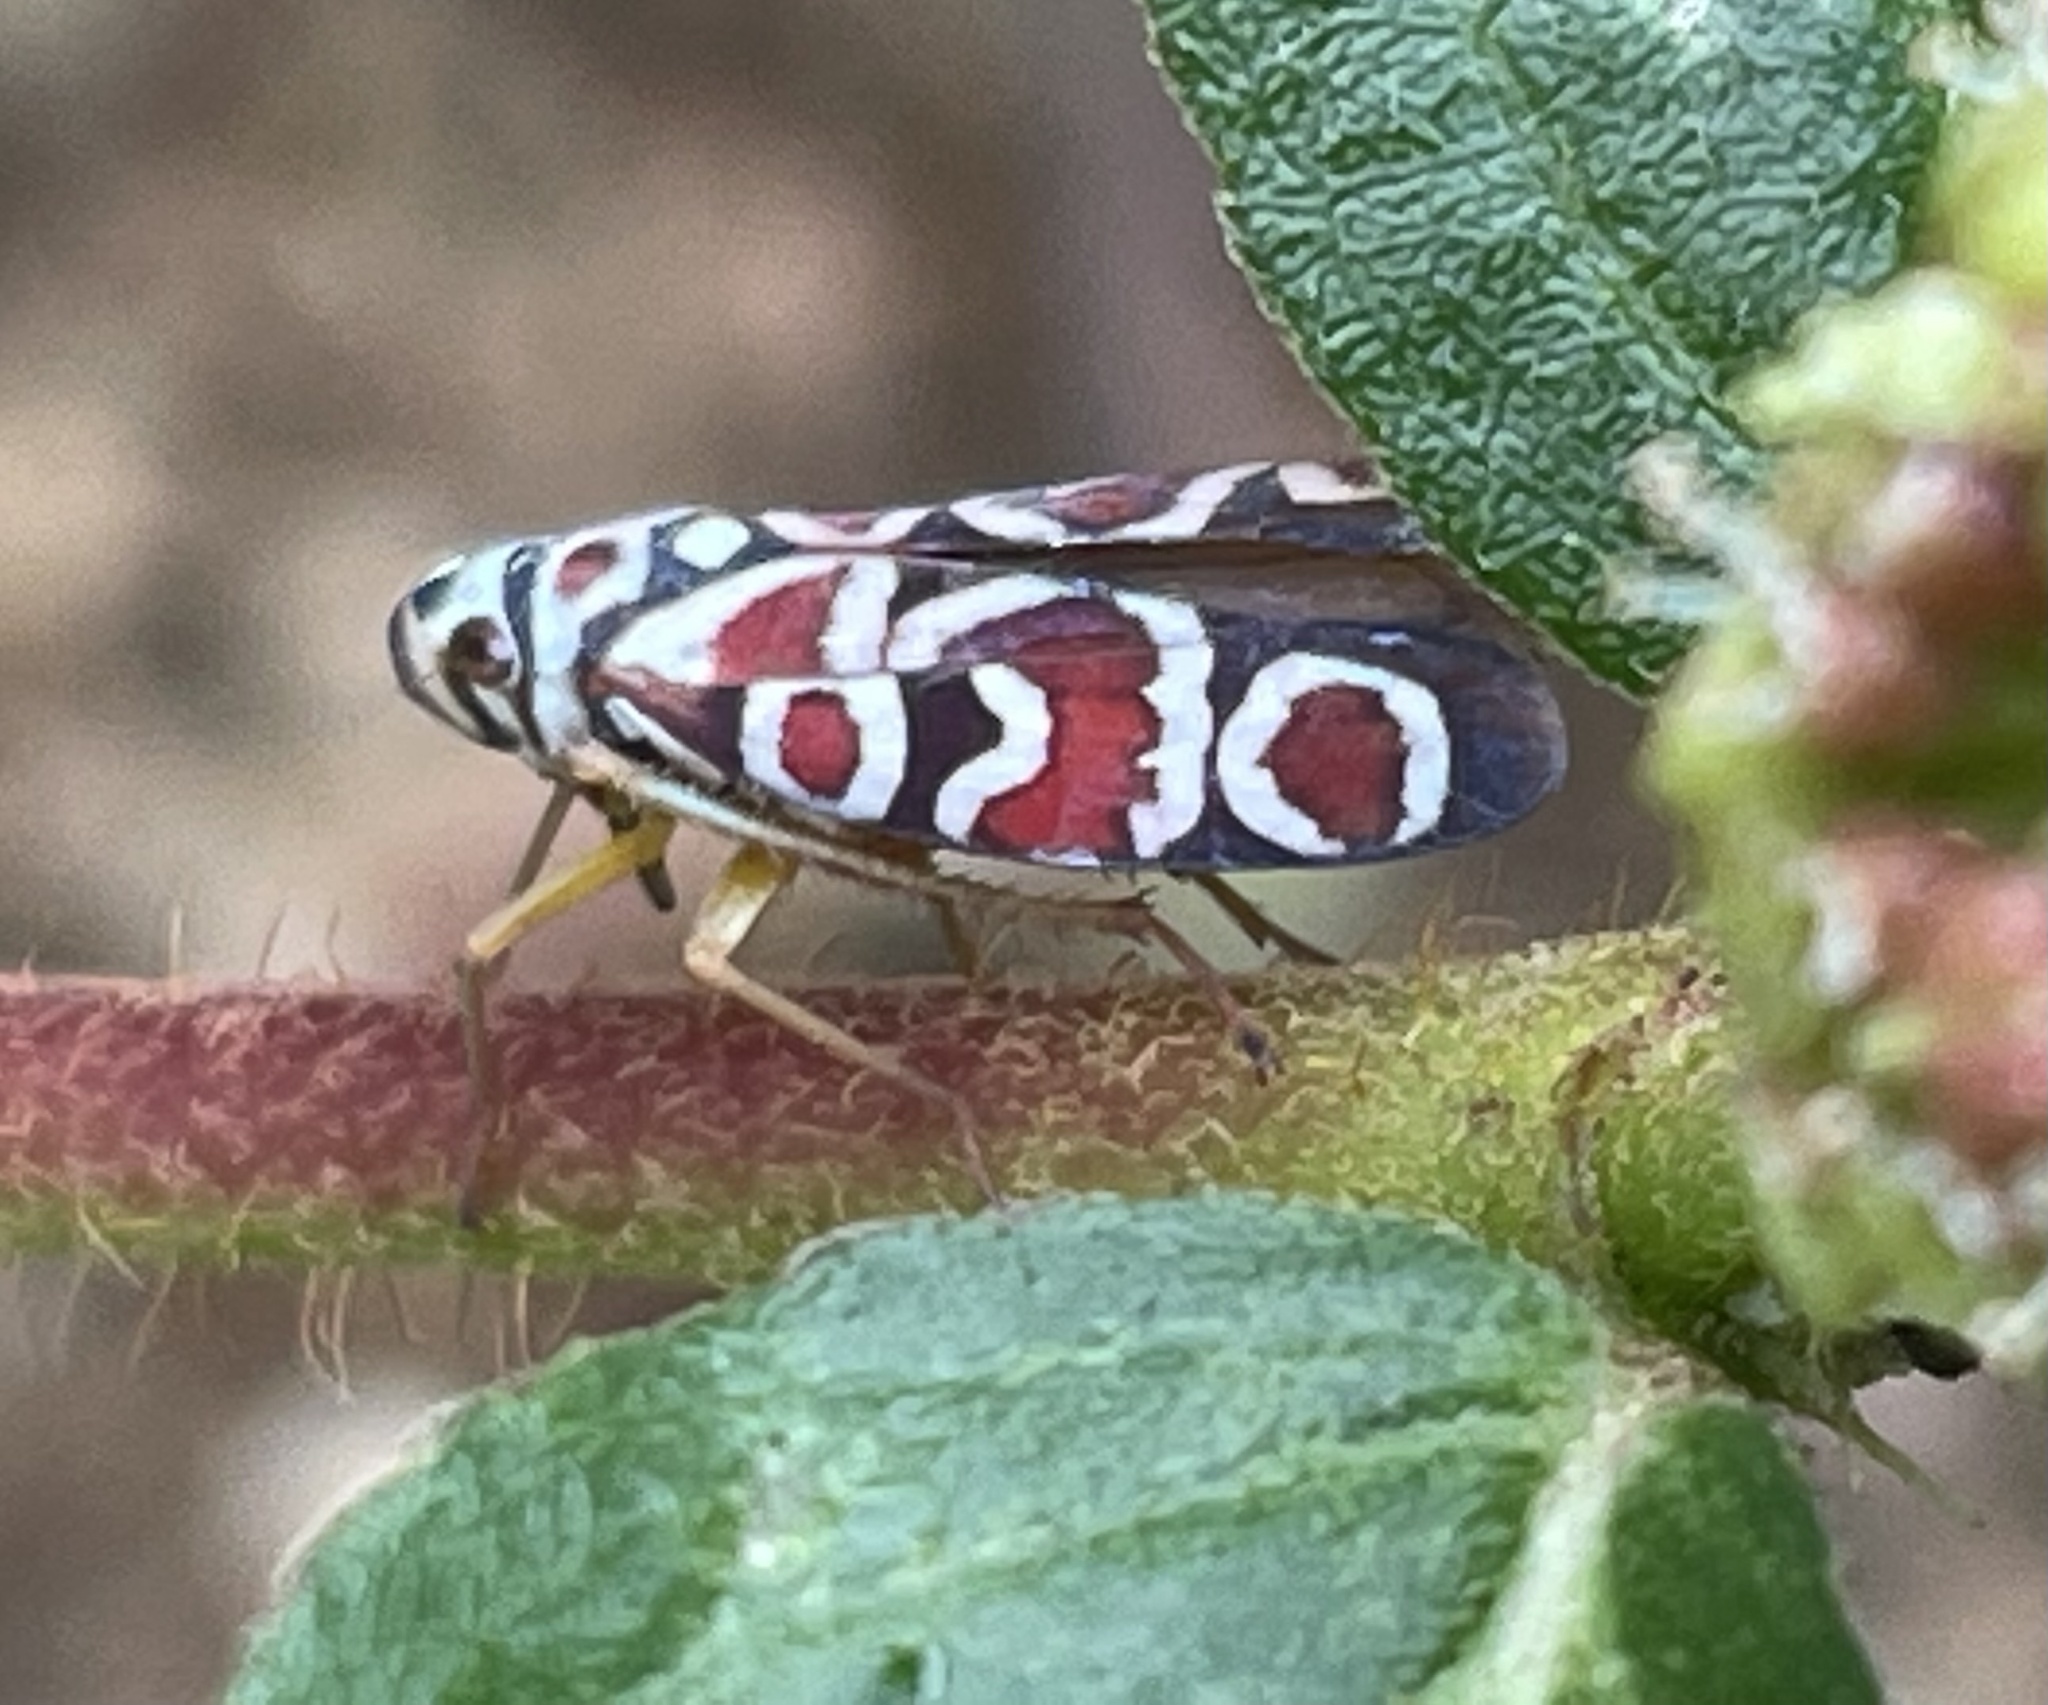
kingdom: Animalia
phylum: Arthropoda
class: Insecta
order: Hemiptera
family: Cicadellidae
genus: Agrosoma
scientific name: Agrosoma placetis
